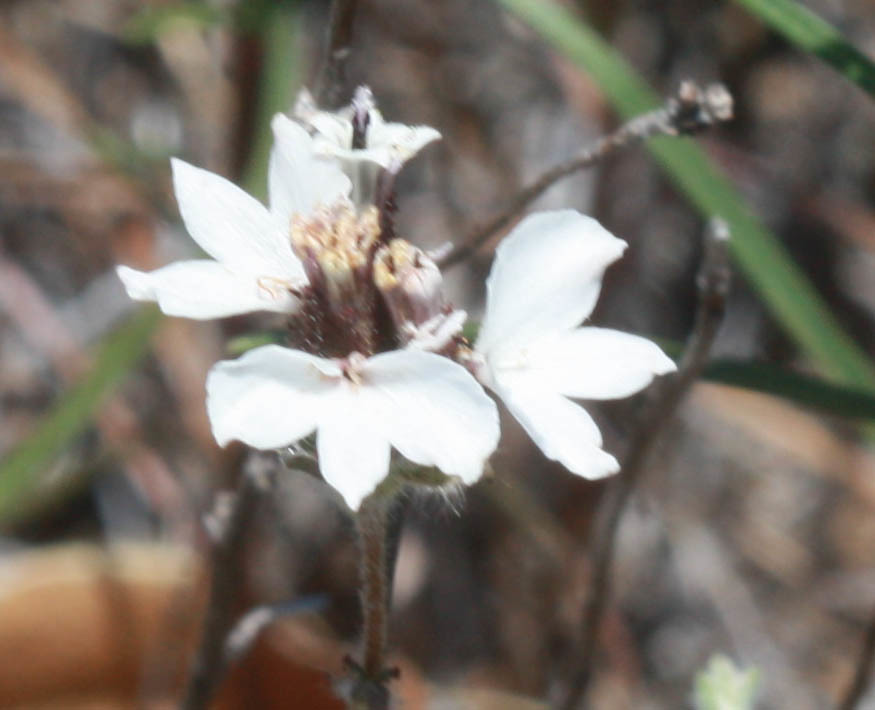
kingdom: Plantae
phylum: Tracheophyta
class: Magnoliopsida
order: Asterales
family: Asteraceae
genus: Calycadenia
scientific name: Calycadenia multiglandulosa
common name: Sticky calycadenia
